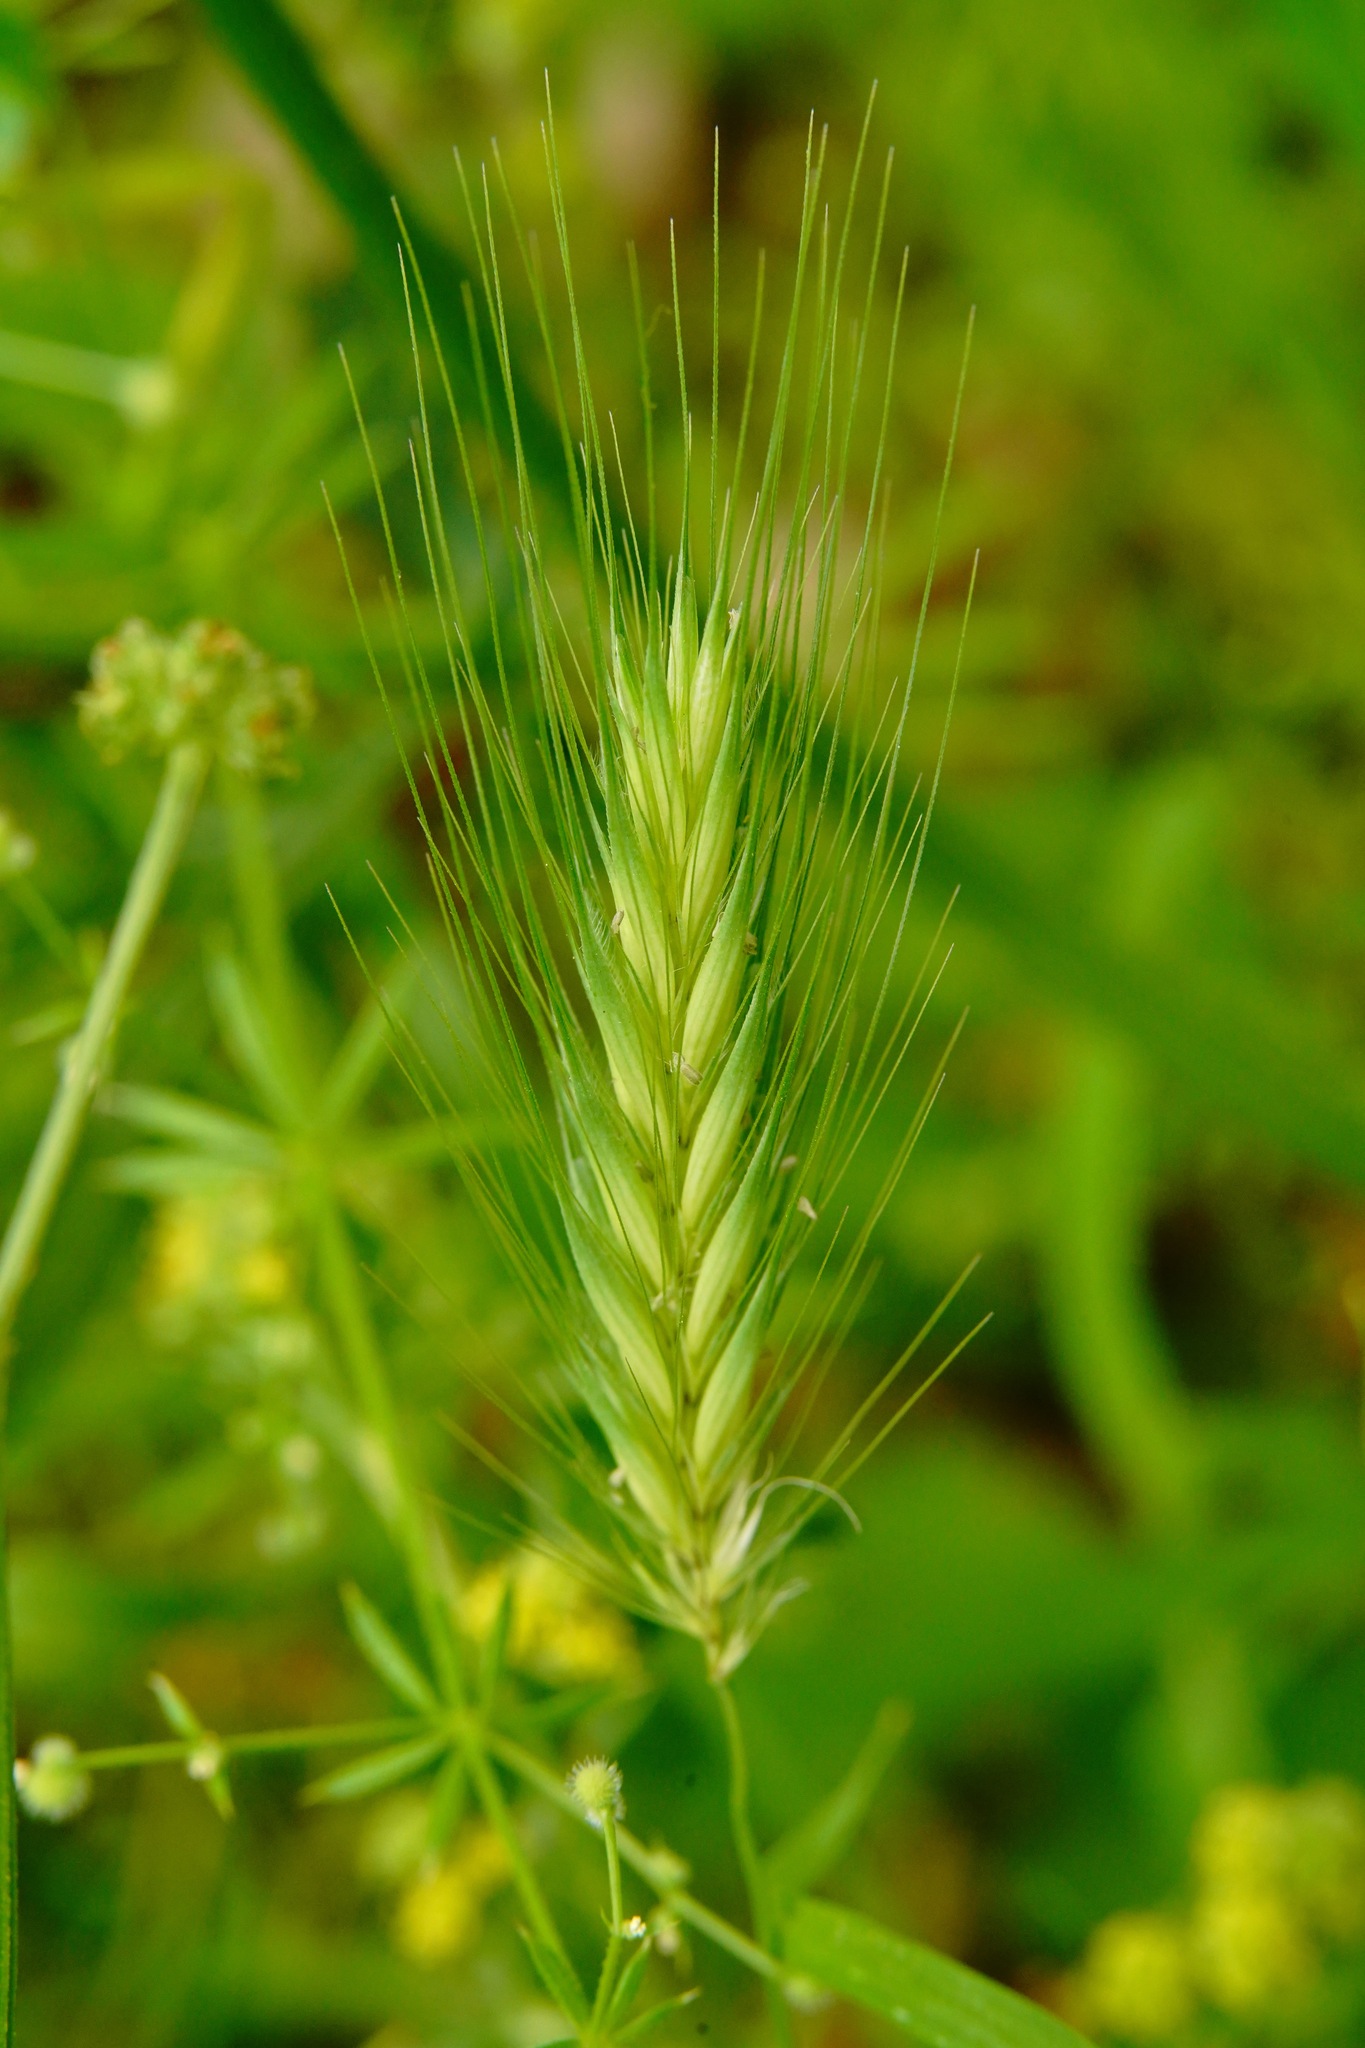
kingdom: Plantae
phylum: Tracheophyta
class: Liliopsida
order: Poales
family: Poaceae
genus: Hordeum
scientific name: Hordeum murinum
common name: Wall barley
